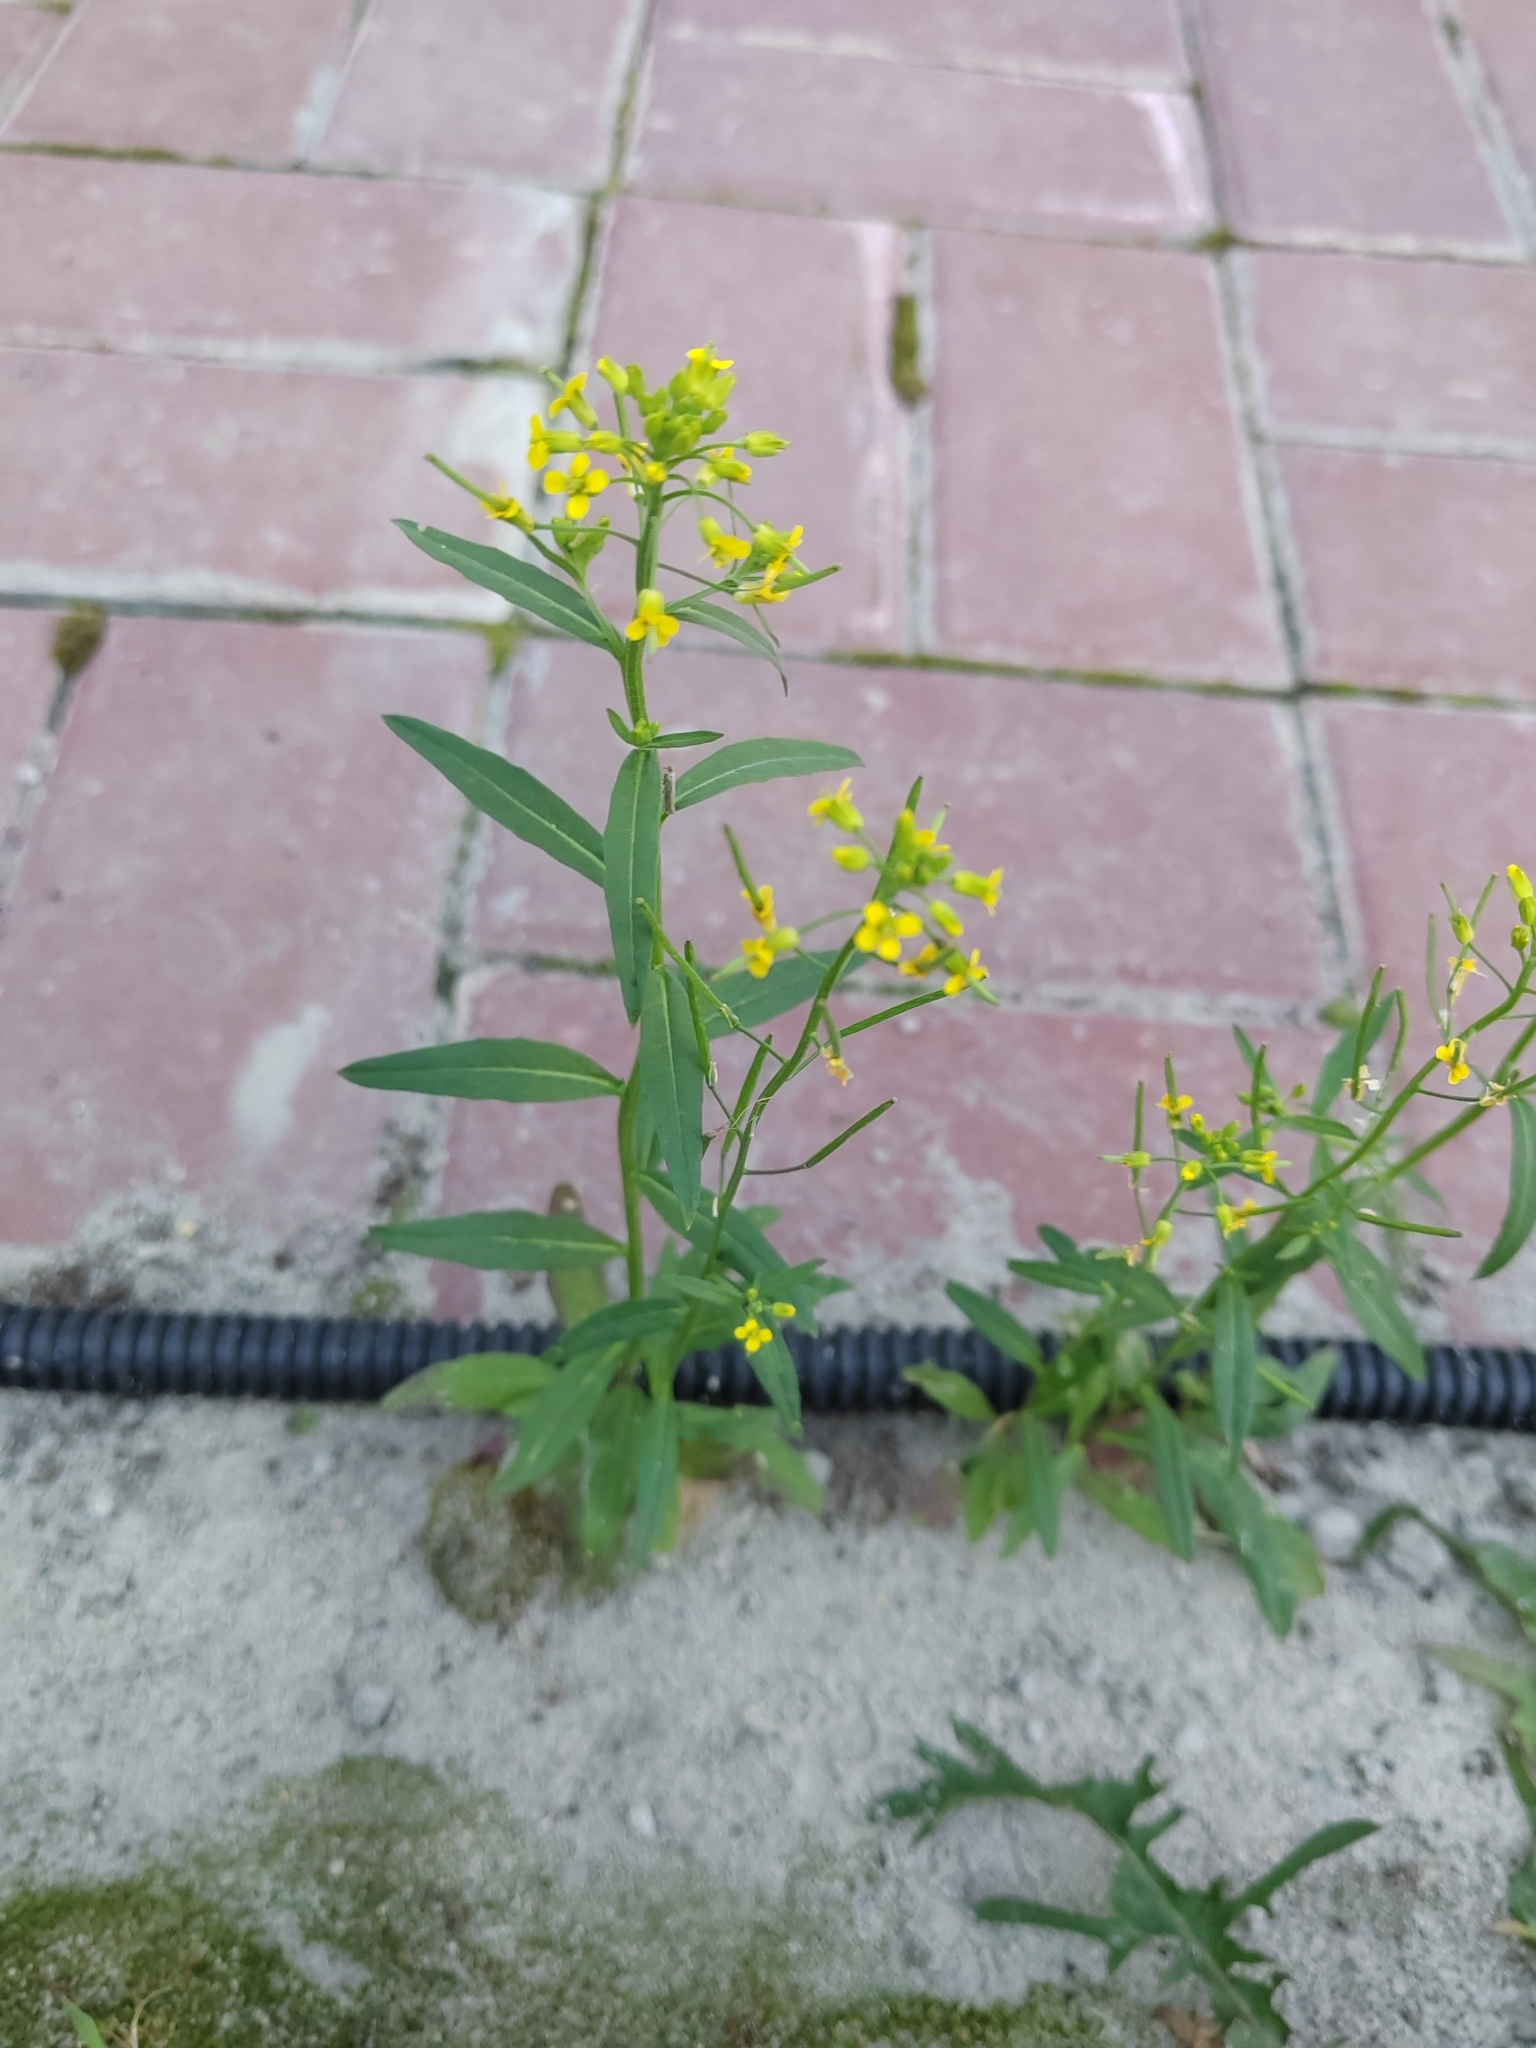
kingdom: Plantae
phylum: Tracheophyta
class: Magnoliopsida
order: Brassicales
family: Brassicaceae
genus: Erysimum
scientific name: Erysimum cheiranthoides
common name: Treacle mustard
